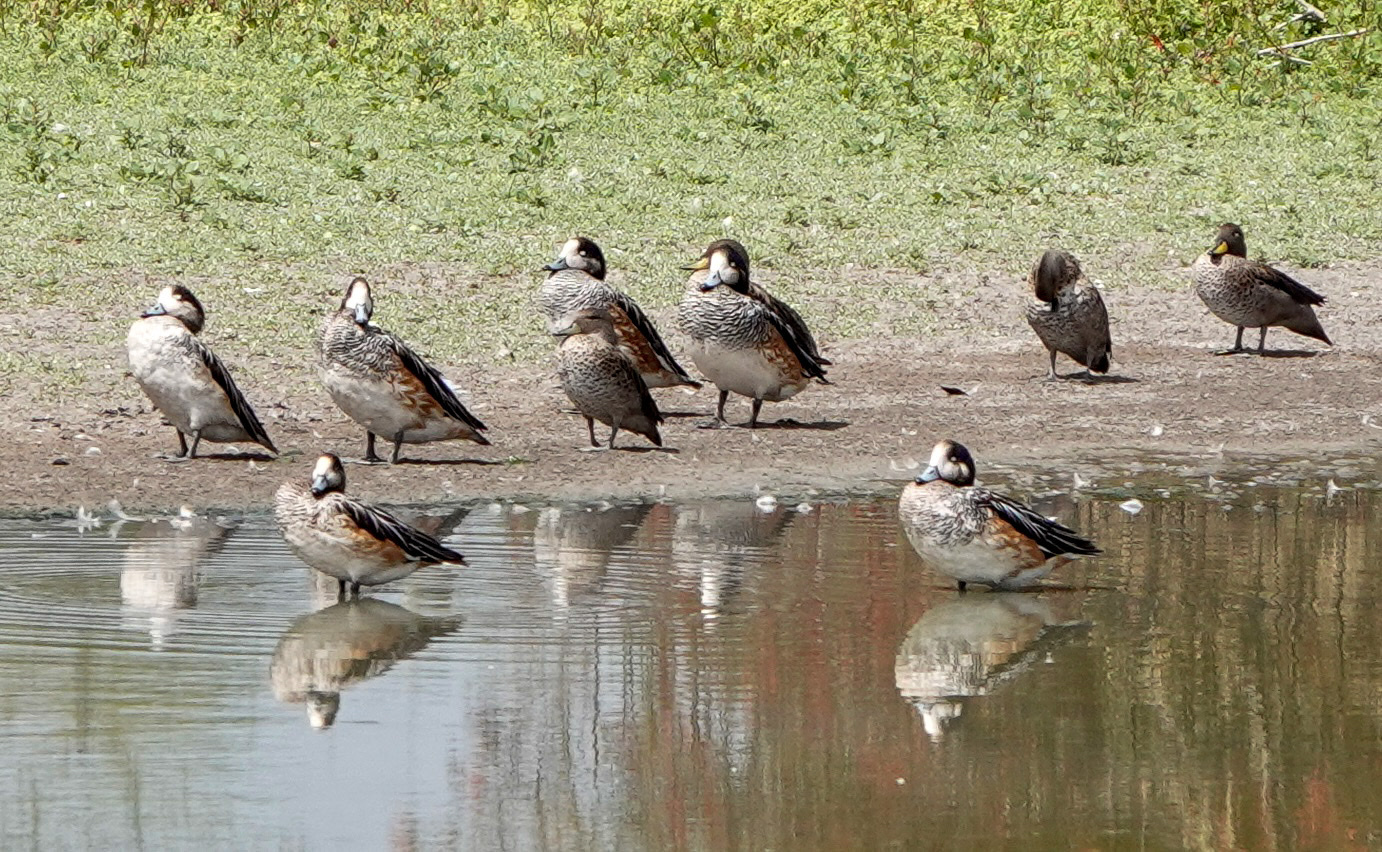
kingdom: Animalia
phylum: Chordata
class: Aves
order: Anseriformes
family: Anatidae
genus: Mareca
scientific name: Mareca sibilatrix
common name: Chiloe wigeon
